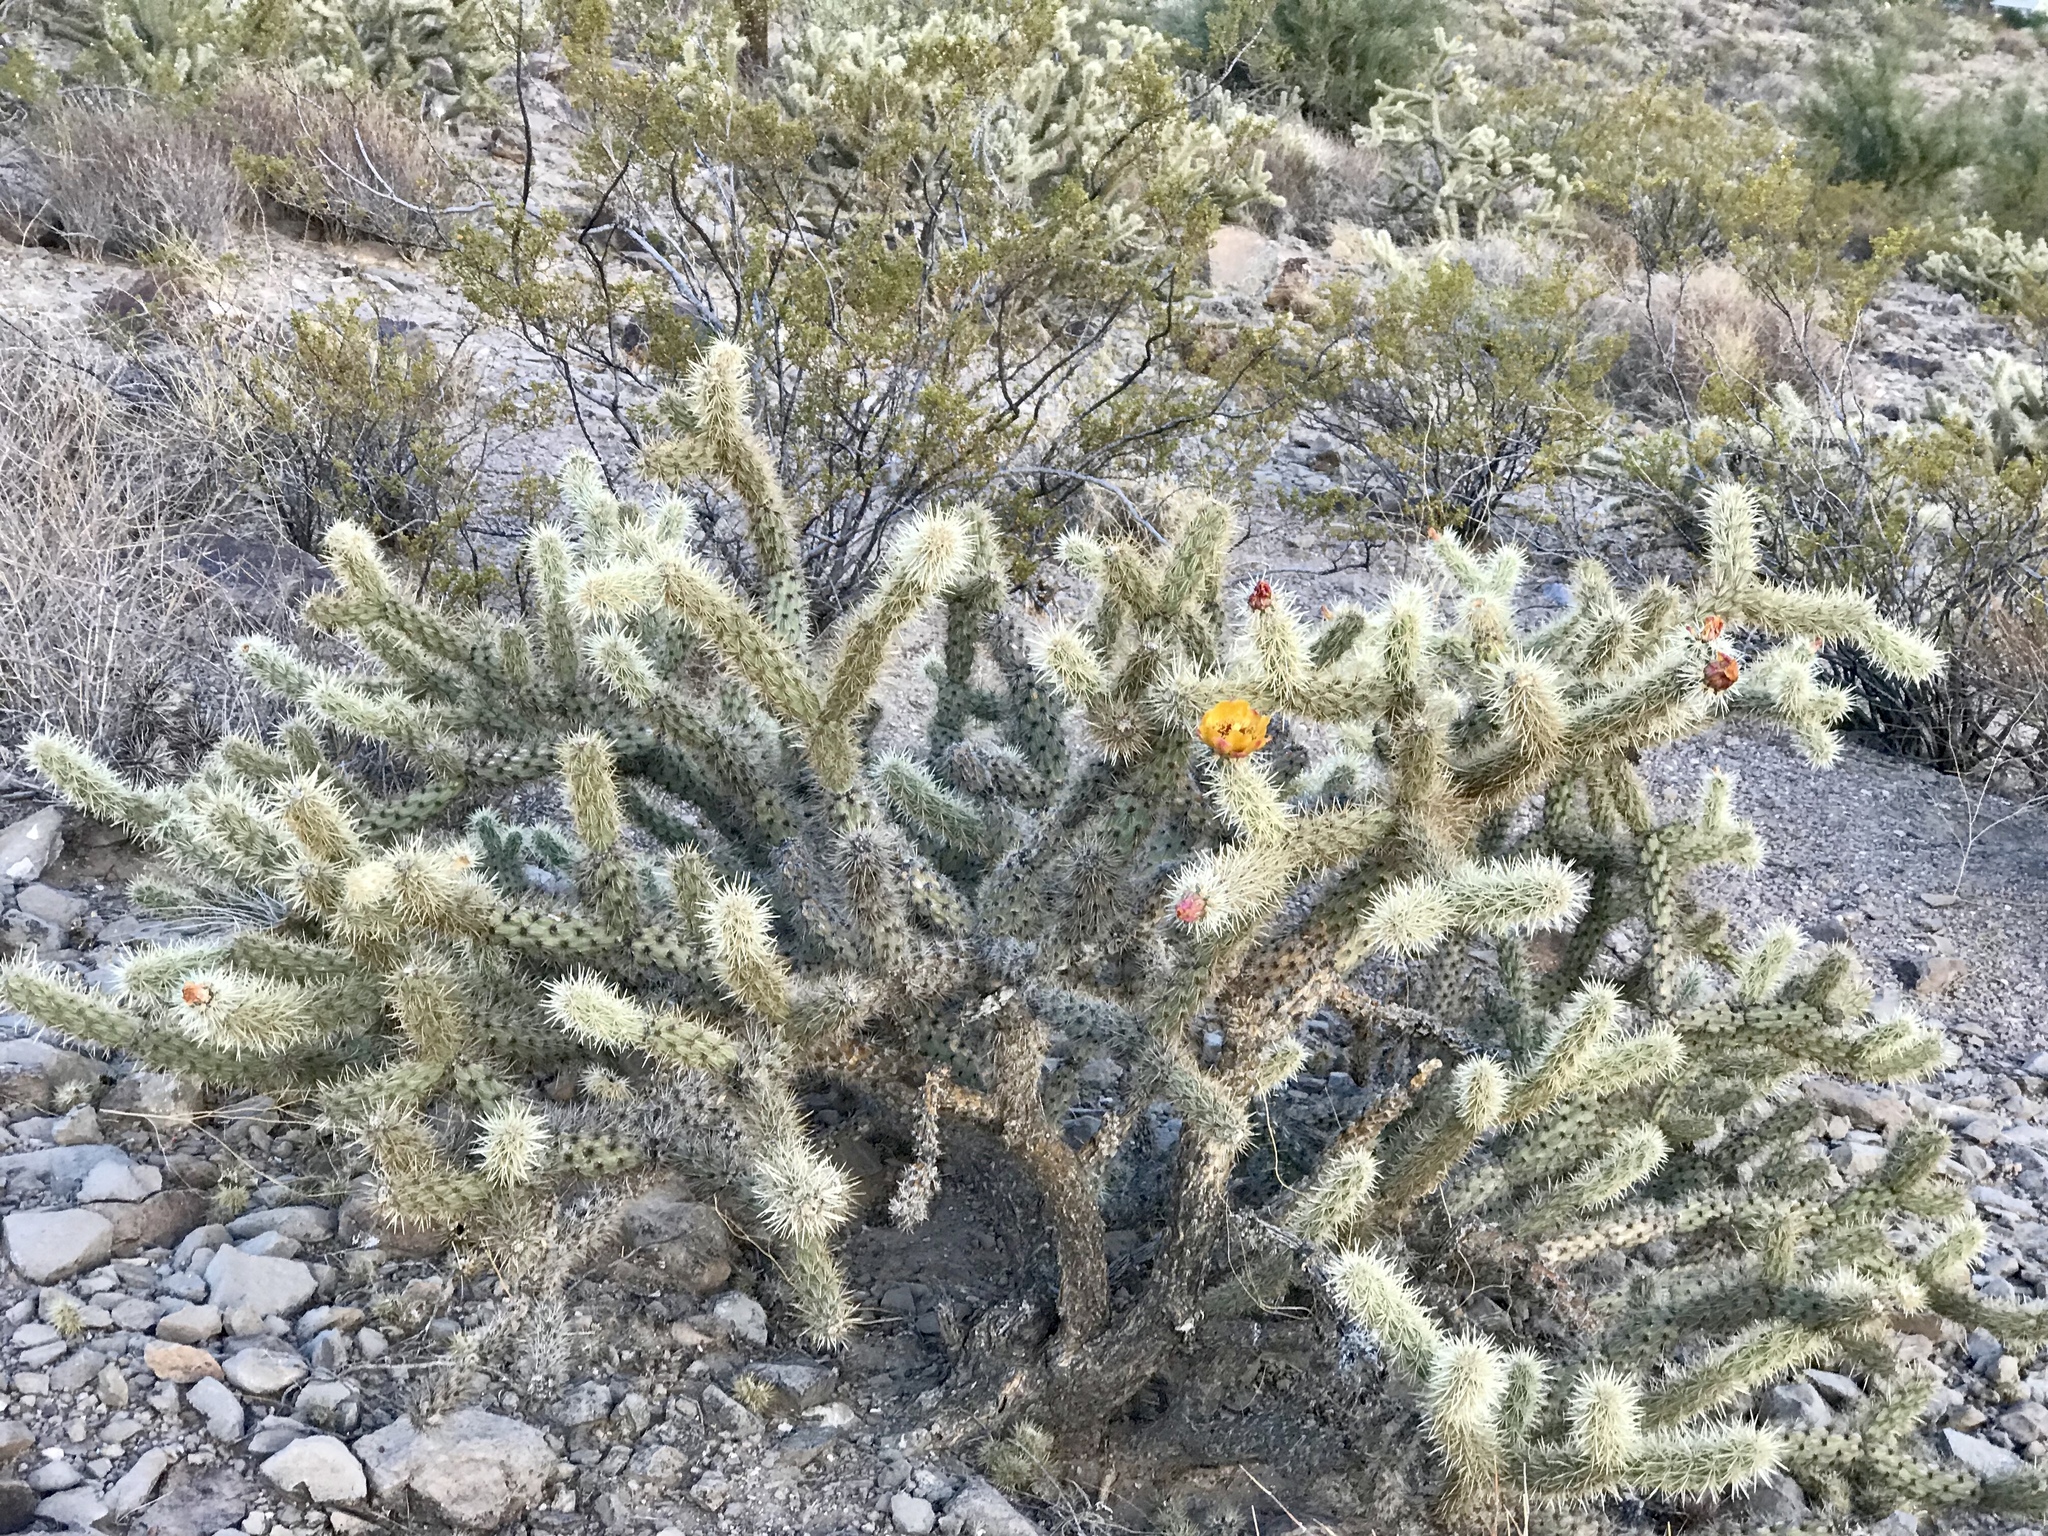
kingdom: Plantae
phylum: Tracheophyta
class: Magnoliopsida
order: Caryophyllales
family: Cactaceae
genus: Cylindropuntia
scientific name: Cylindropuntia acanthocarpa
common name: Buckhorn cholla
